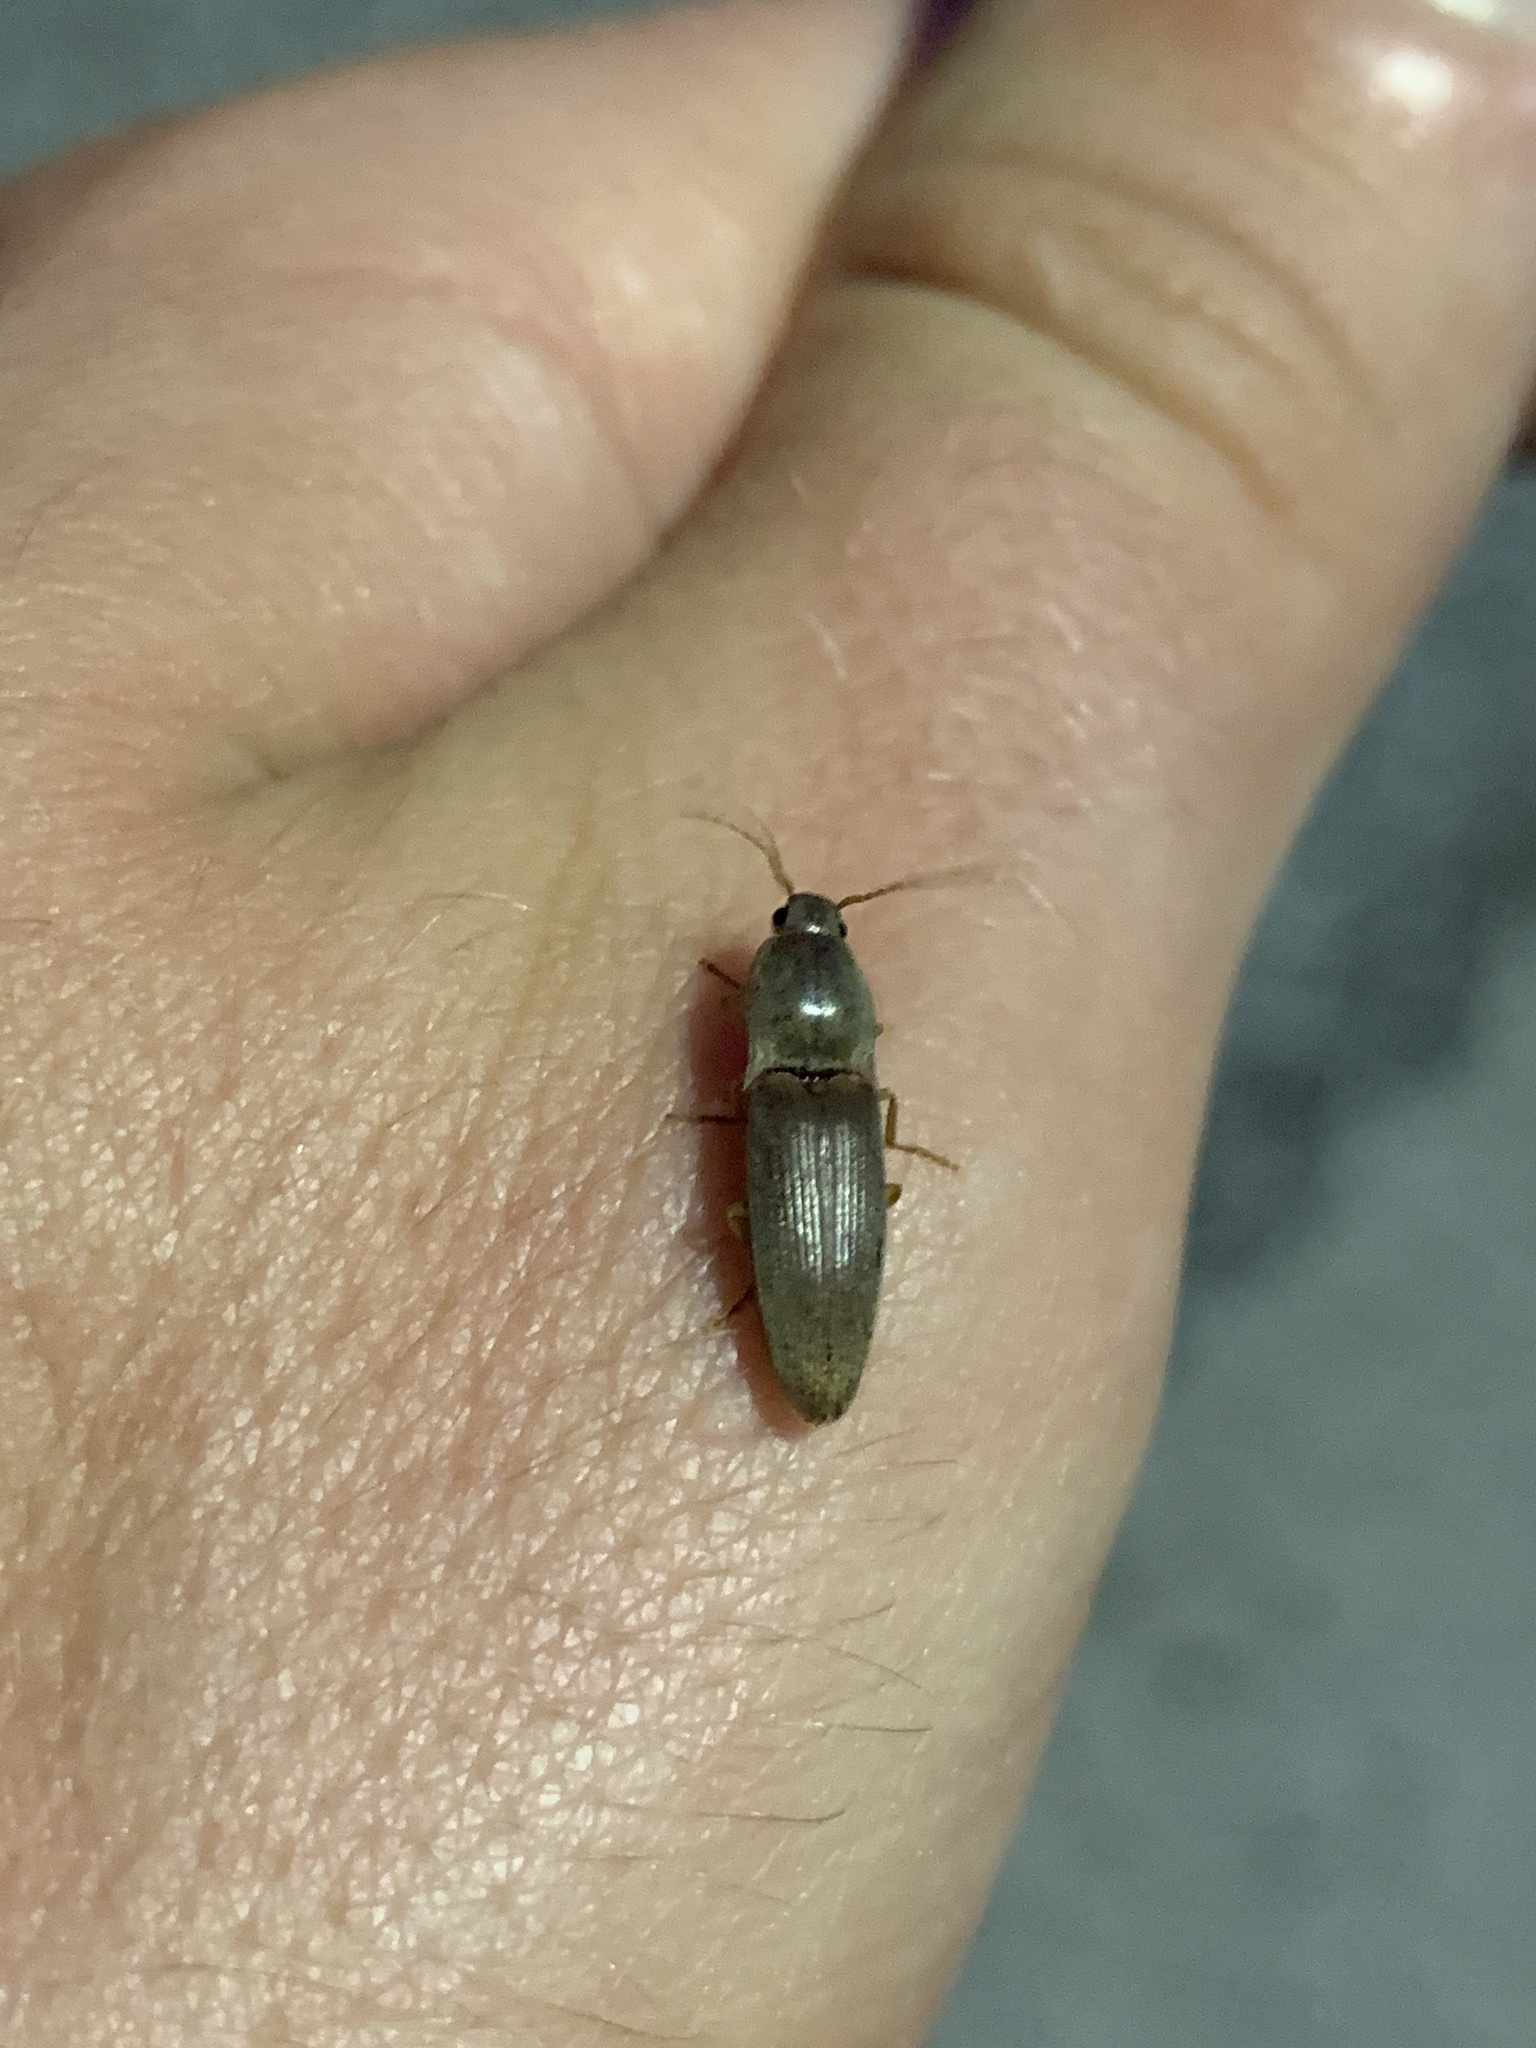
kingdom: Animalia
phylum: Arthropoda
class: Insecta
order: Coleoptera
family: Elateridae
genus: Monocrepidius
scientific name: Monocrepidius lividus
